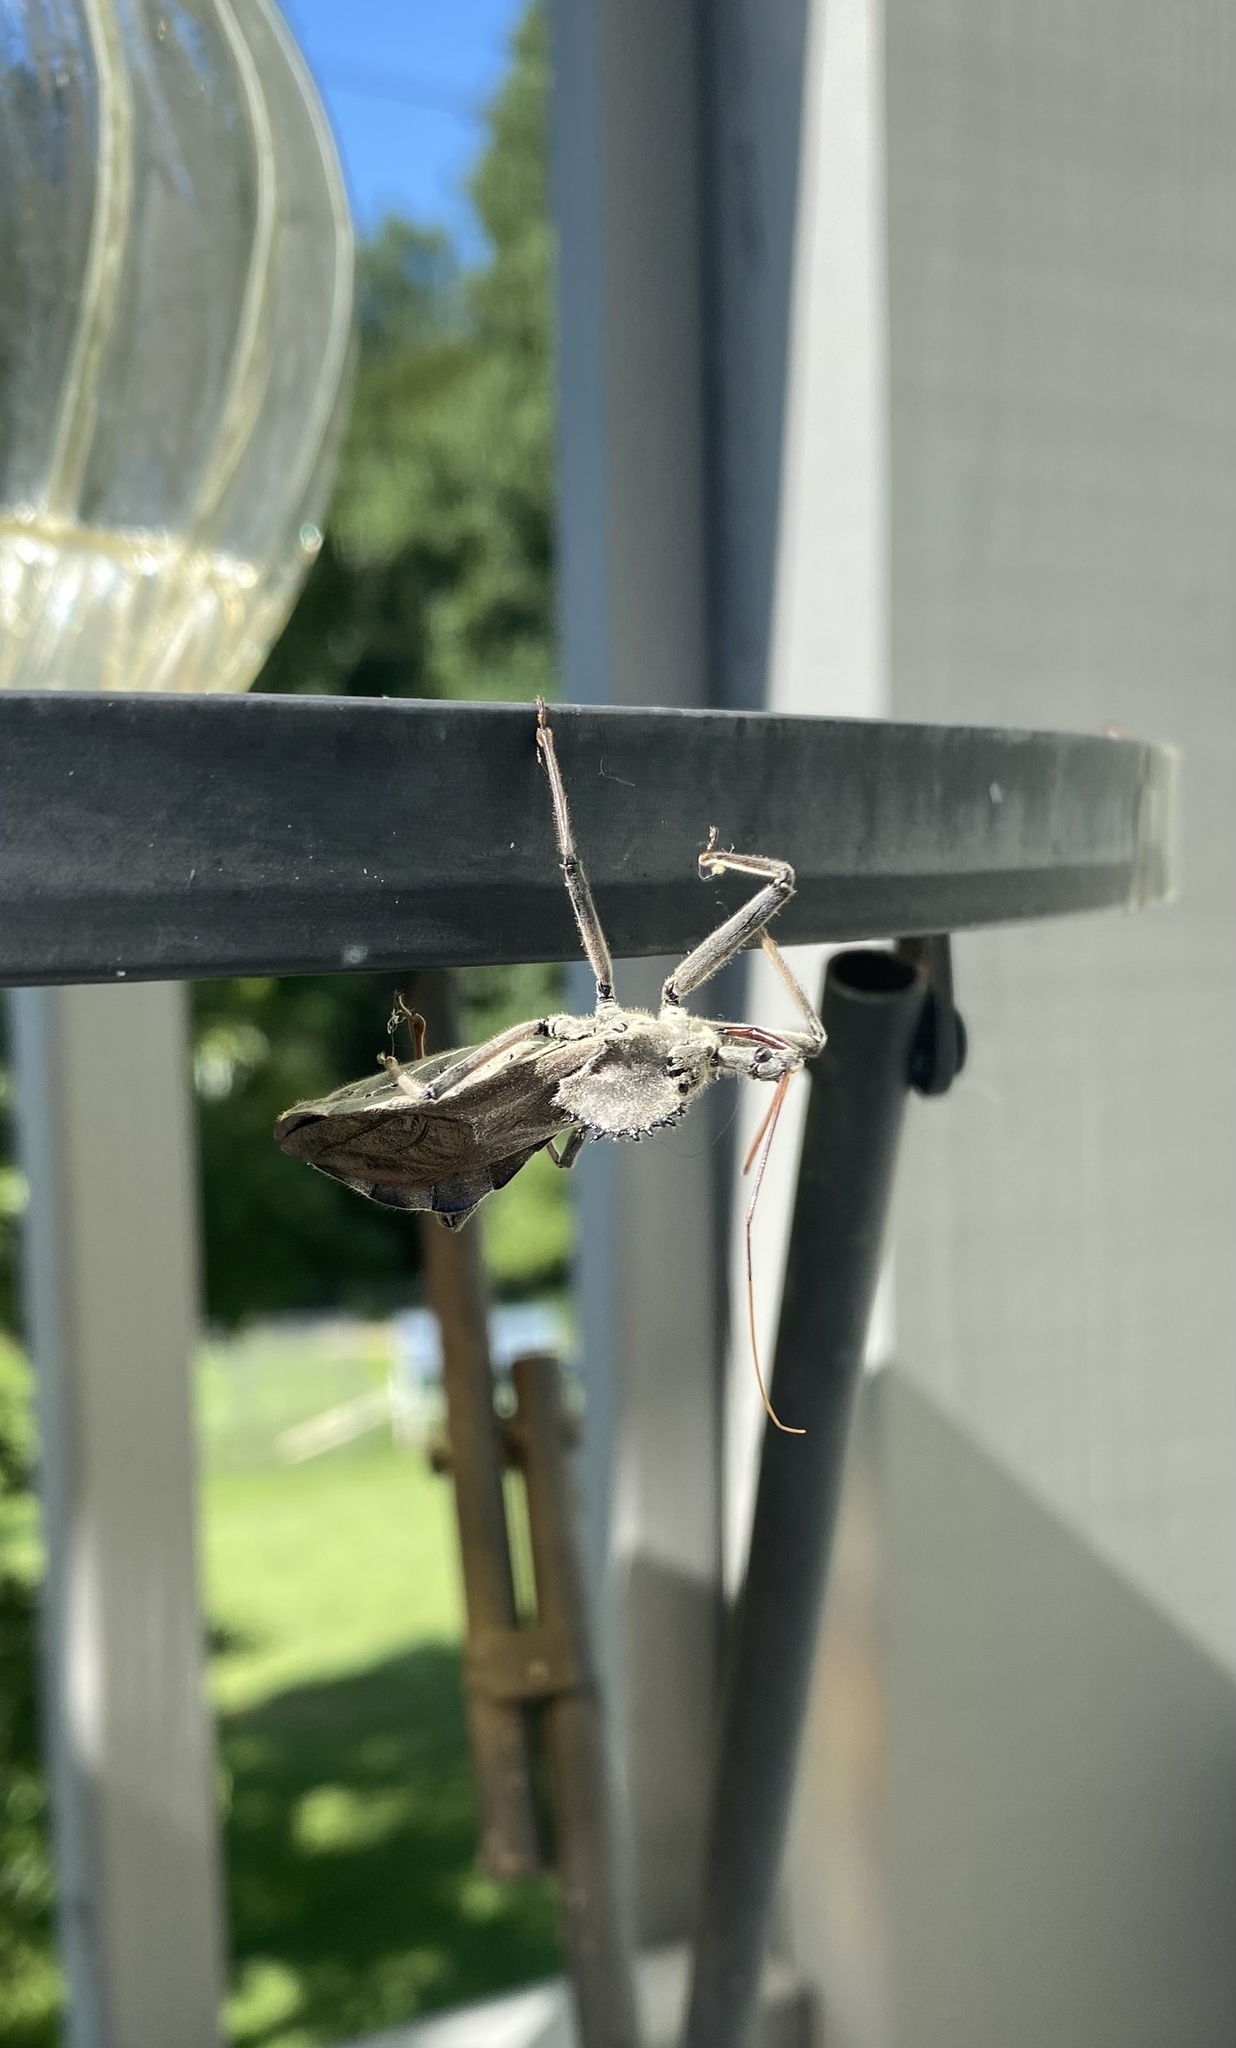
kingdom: Animalia
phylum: Arthropoda
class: Insecta
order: Hemiptera
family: Reduviidae
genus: Arilus
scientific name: Arilus cristatus
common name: North american wheel bug
